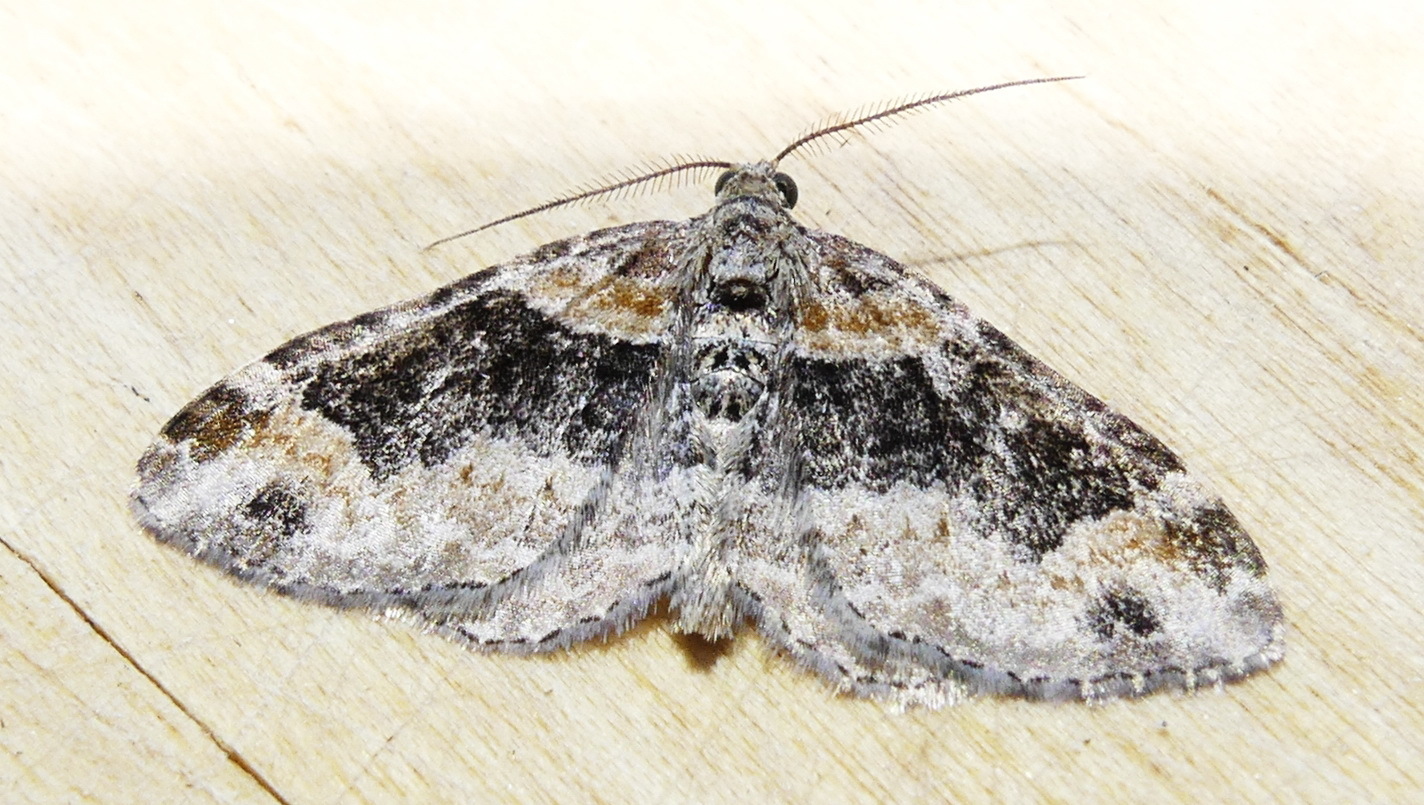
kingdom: Animalia
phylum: Arthropoda
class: Insecta
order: Lepidoptera
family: Geometridae
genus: Xanthorhoe
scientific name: Xanthorhoe ferrugata
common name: Dark-barred twin-spot carpet
